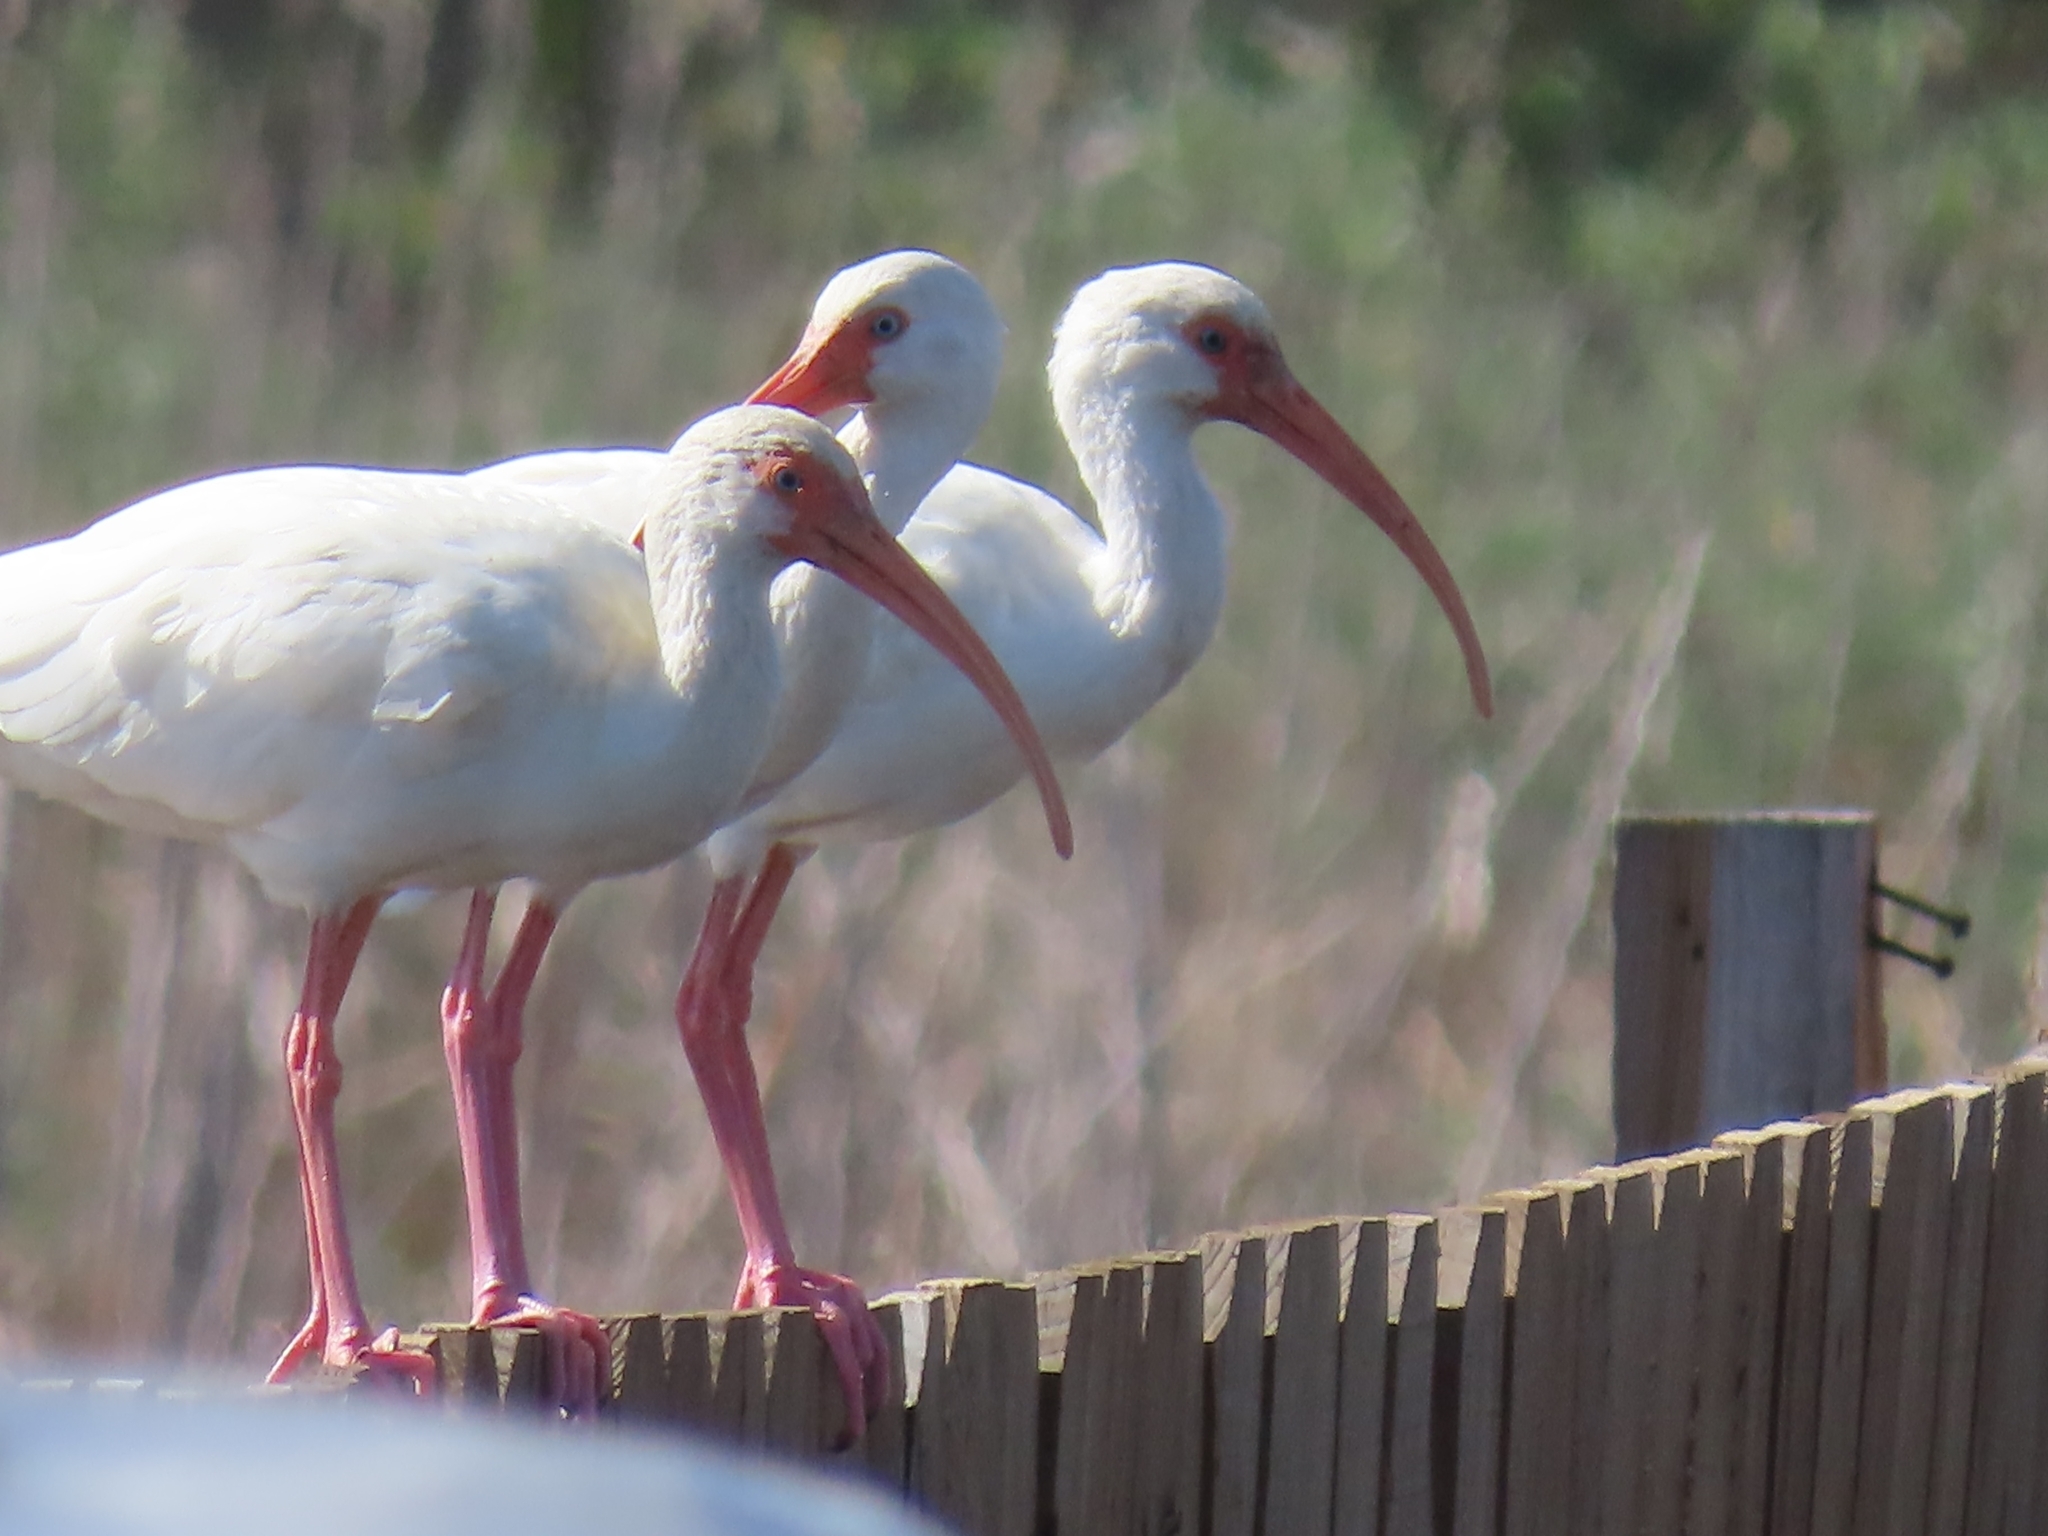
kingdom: Animalia
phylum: Chordata
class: Aves
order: Pelecaniformes
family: Threskiornithidae
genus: Eudocimus
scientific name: Eudocimus albus
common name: White ibis
